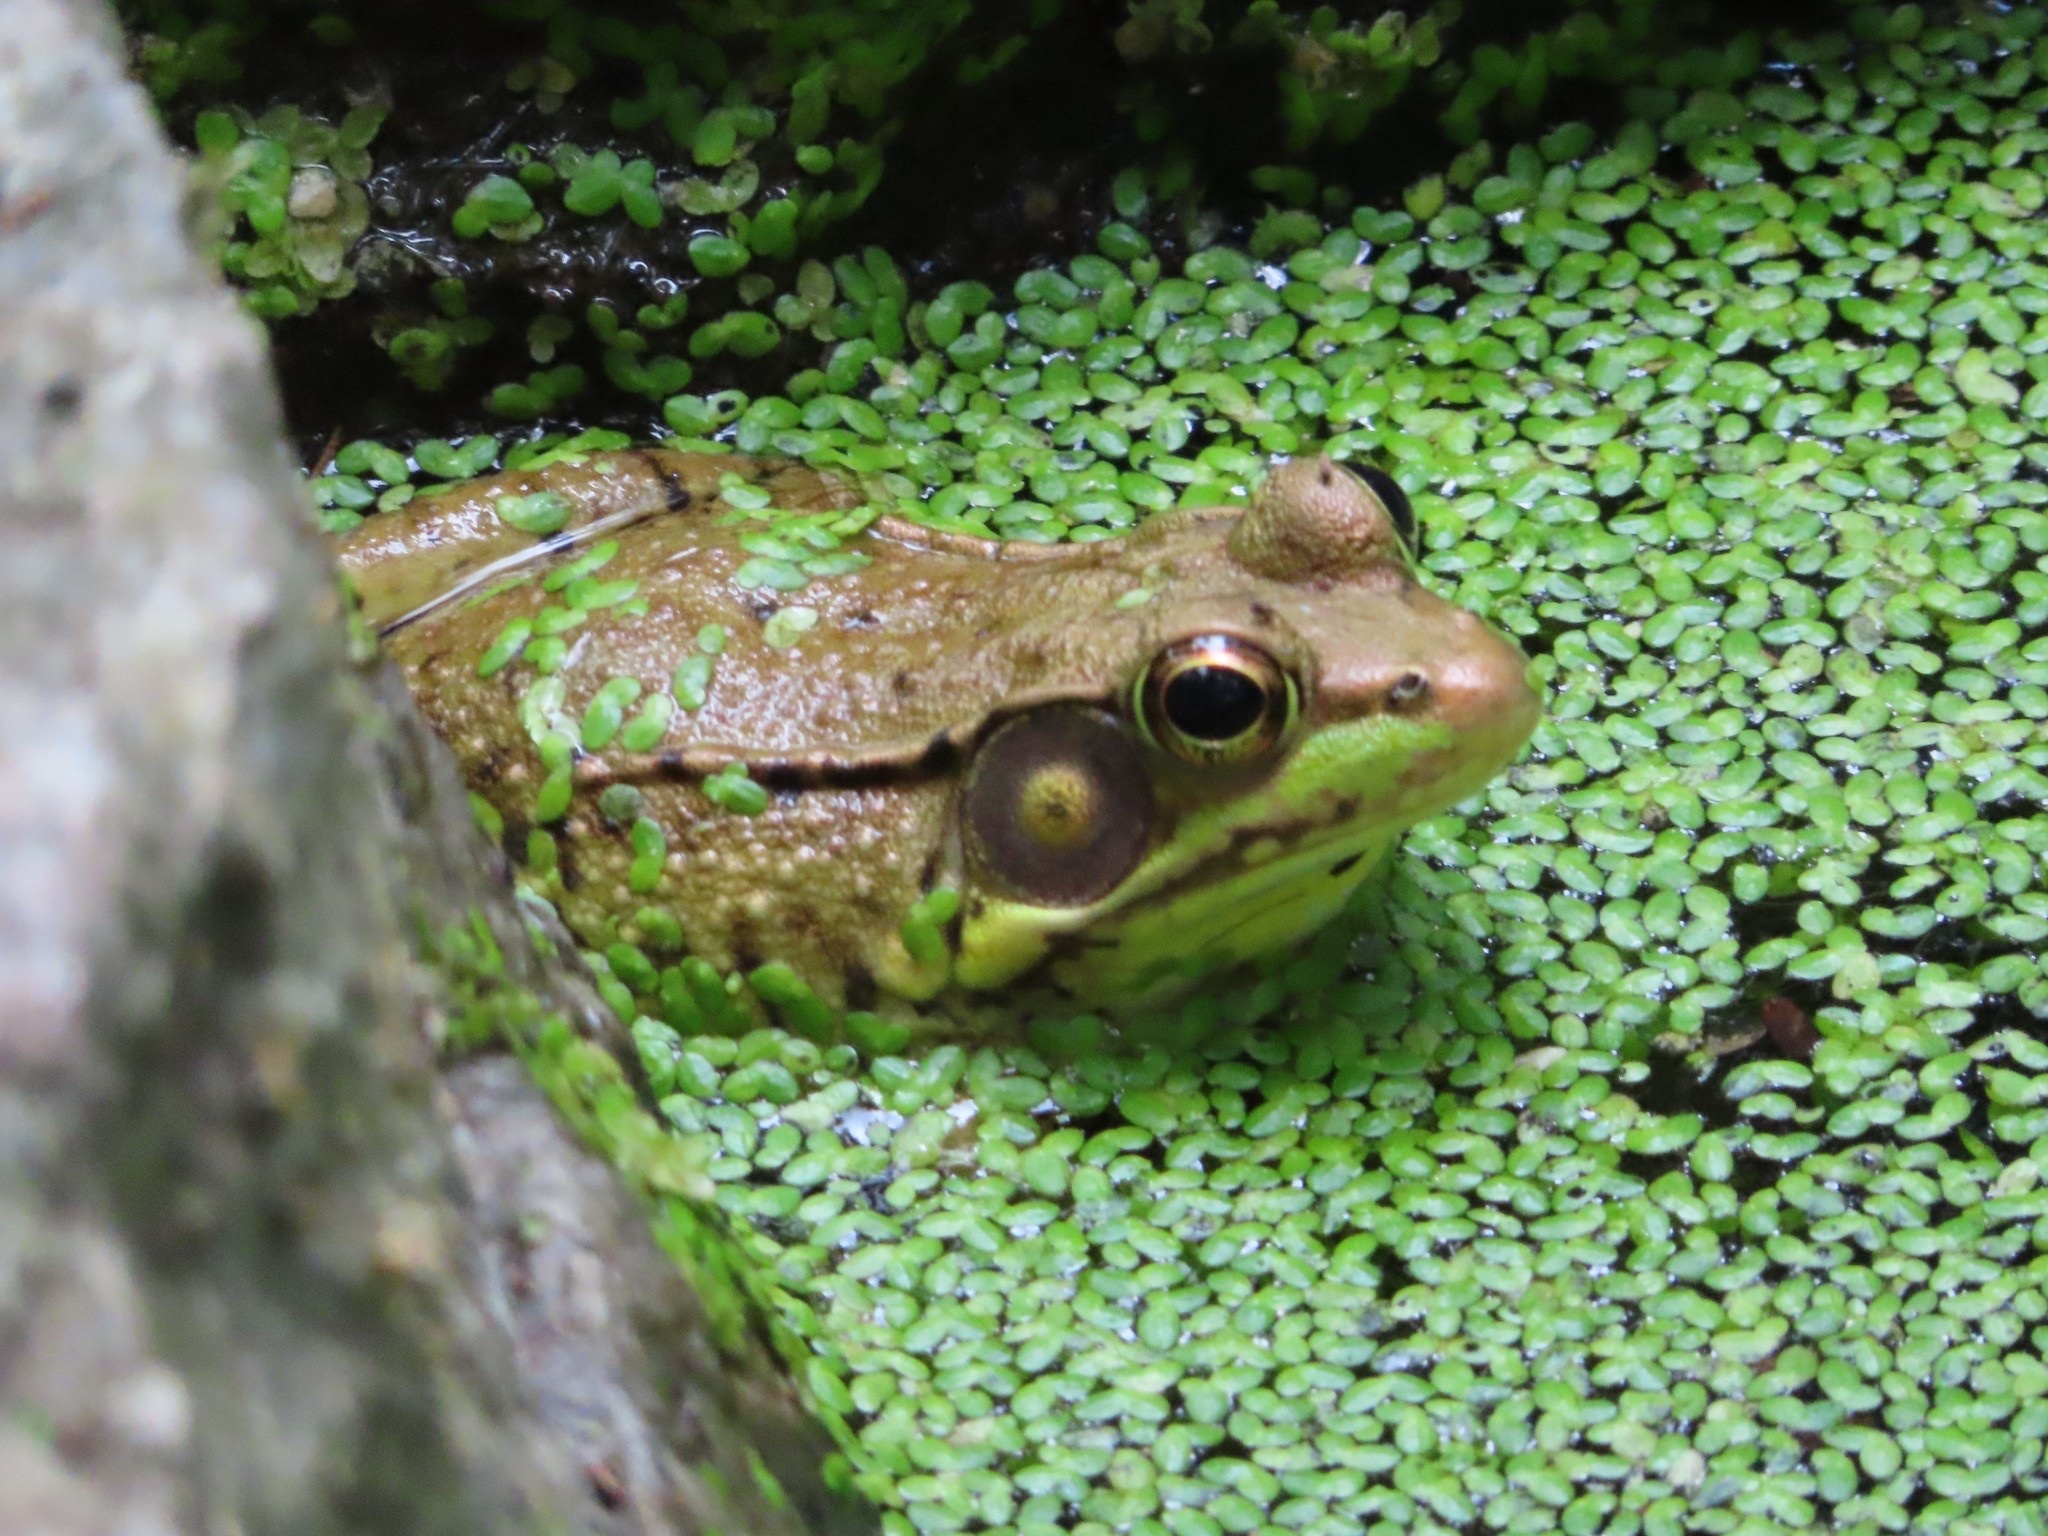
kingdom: Animalia
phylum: Chordata
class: Amphibia
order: Anura
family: Ranidae
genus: Lithobates
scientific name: Lithobates clamitans
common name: Green frog
